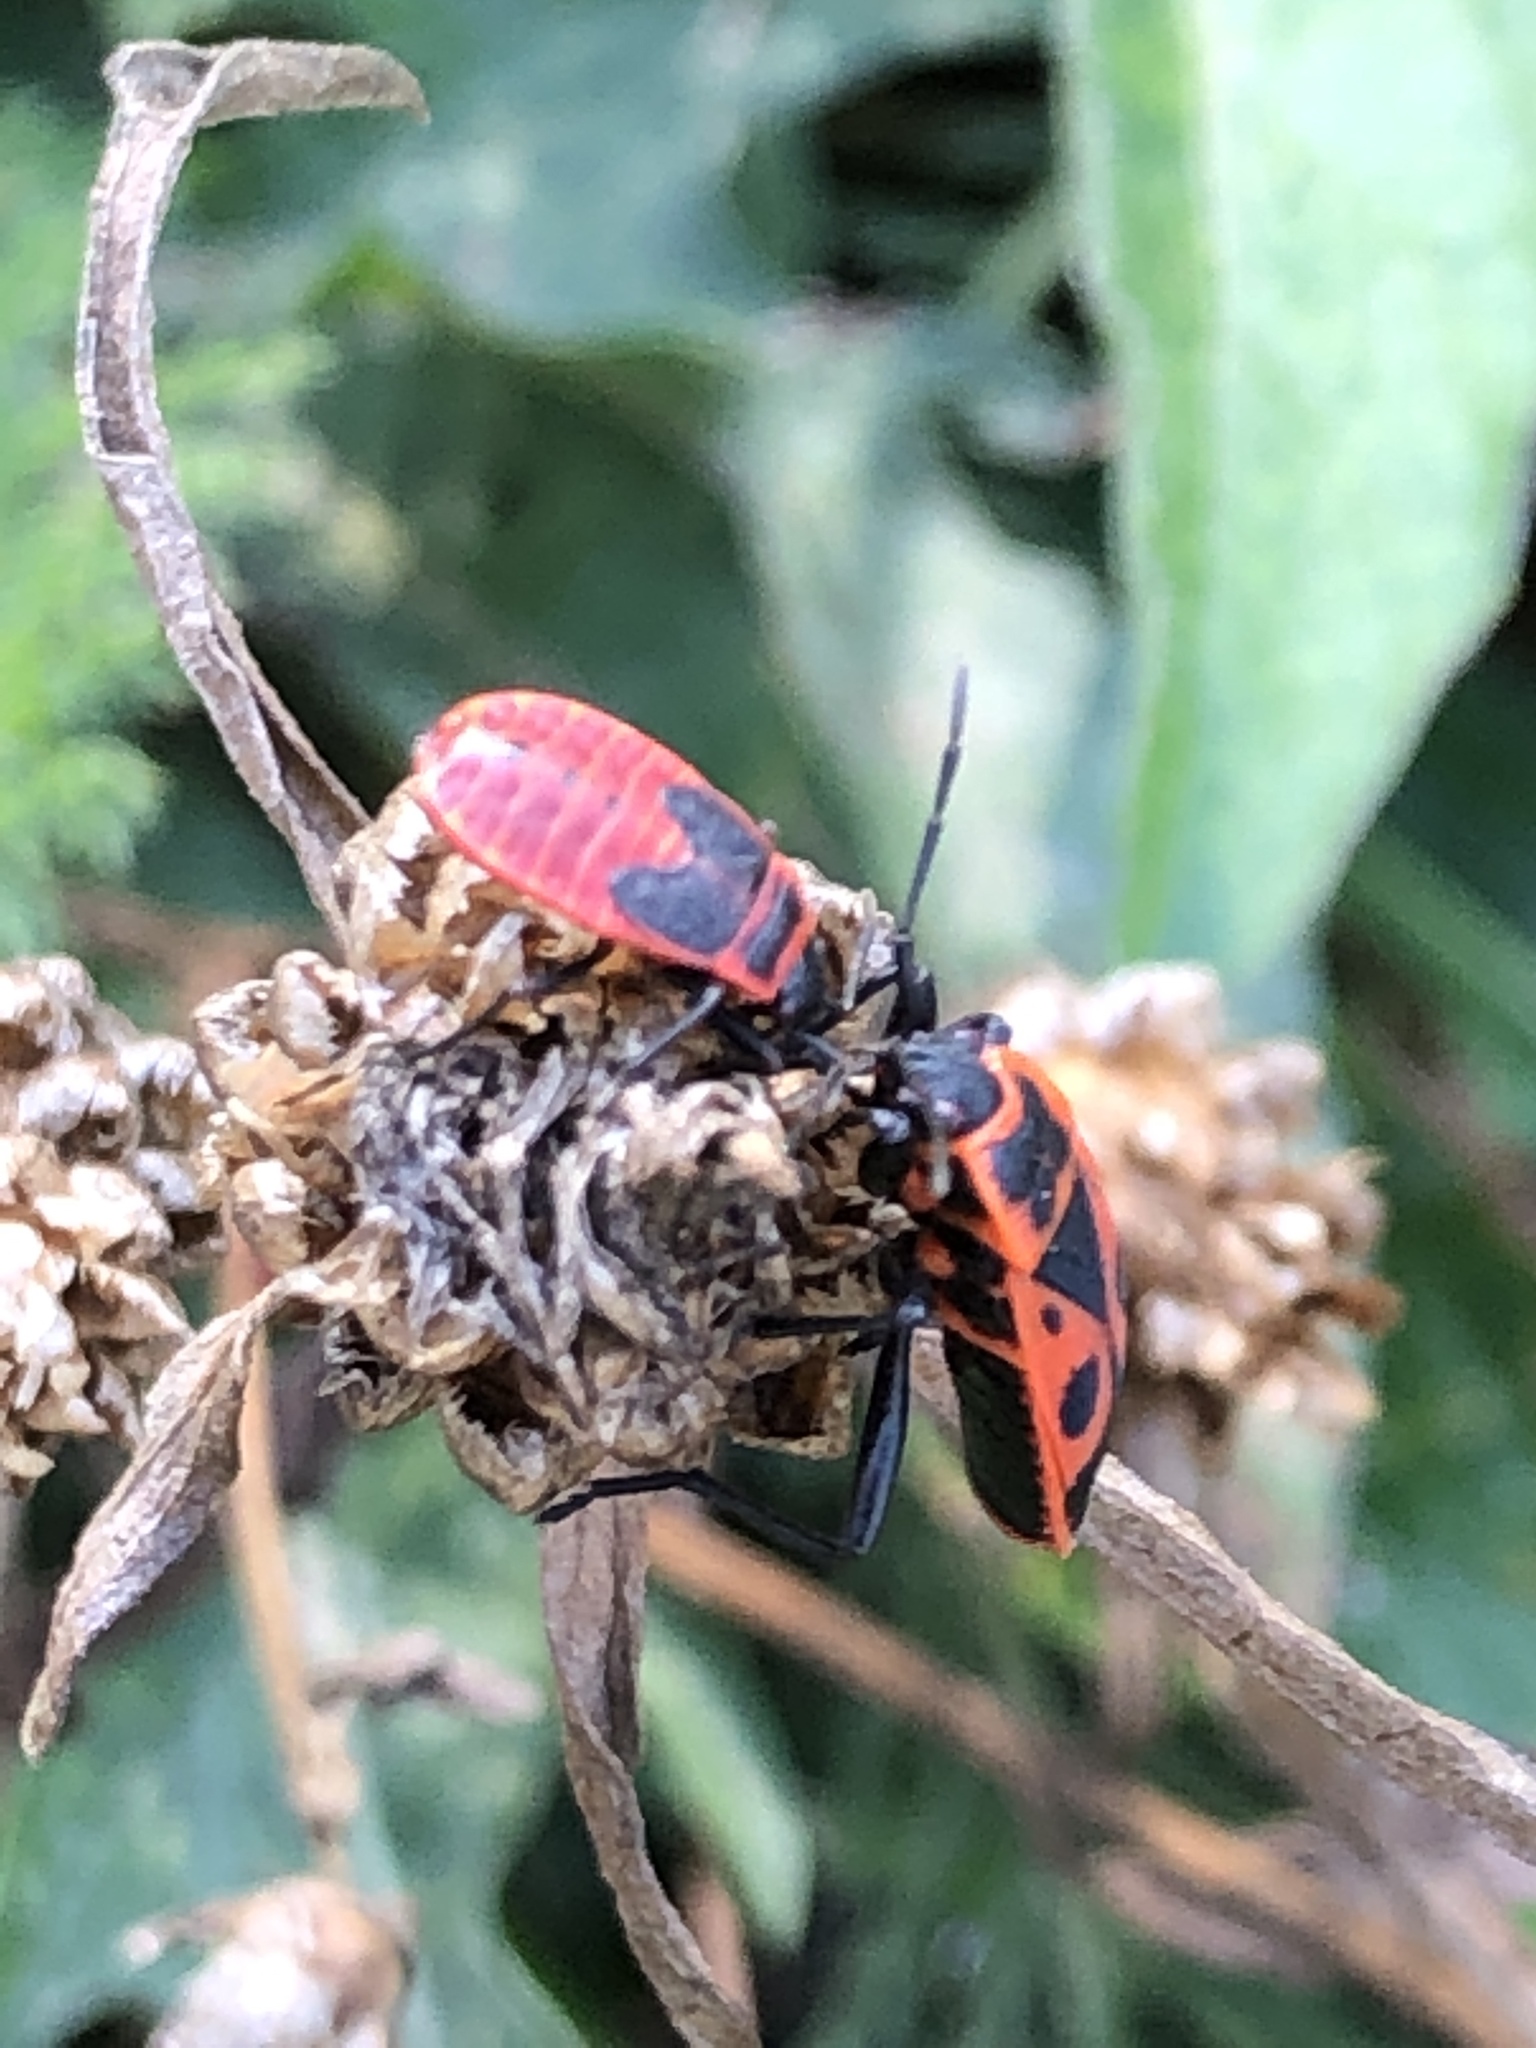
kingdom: Animalia
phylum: Arthropoda
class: Insecta
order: Hemiptera
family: Pyrrhocoridae
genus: Pyrrhocoris
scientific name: Pyrrhocoris apterus
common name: Firebug
